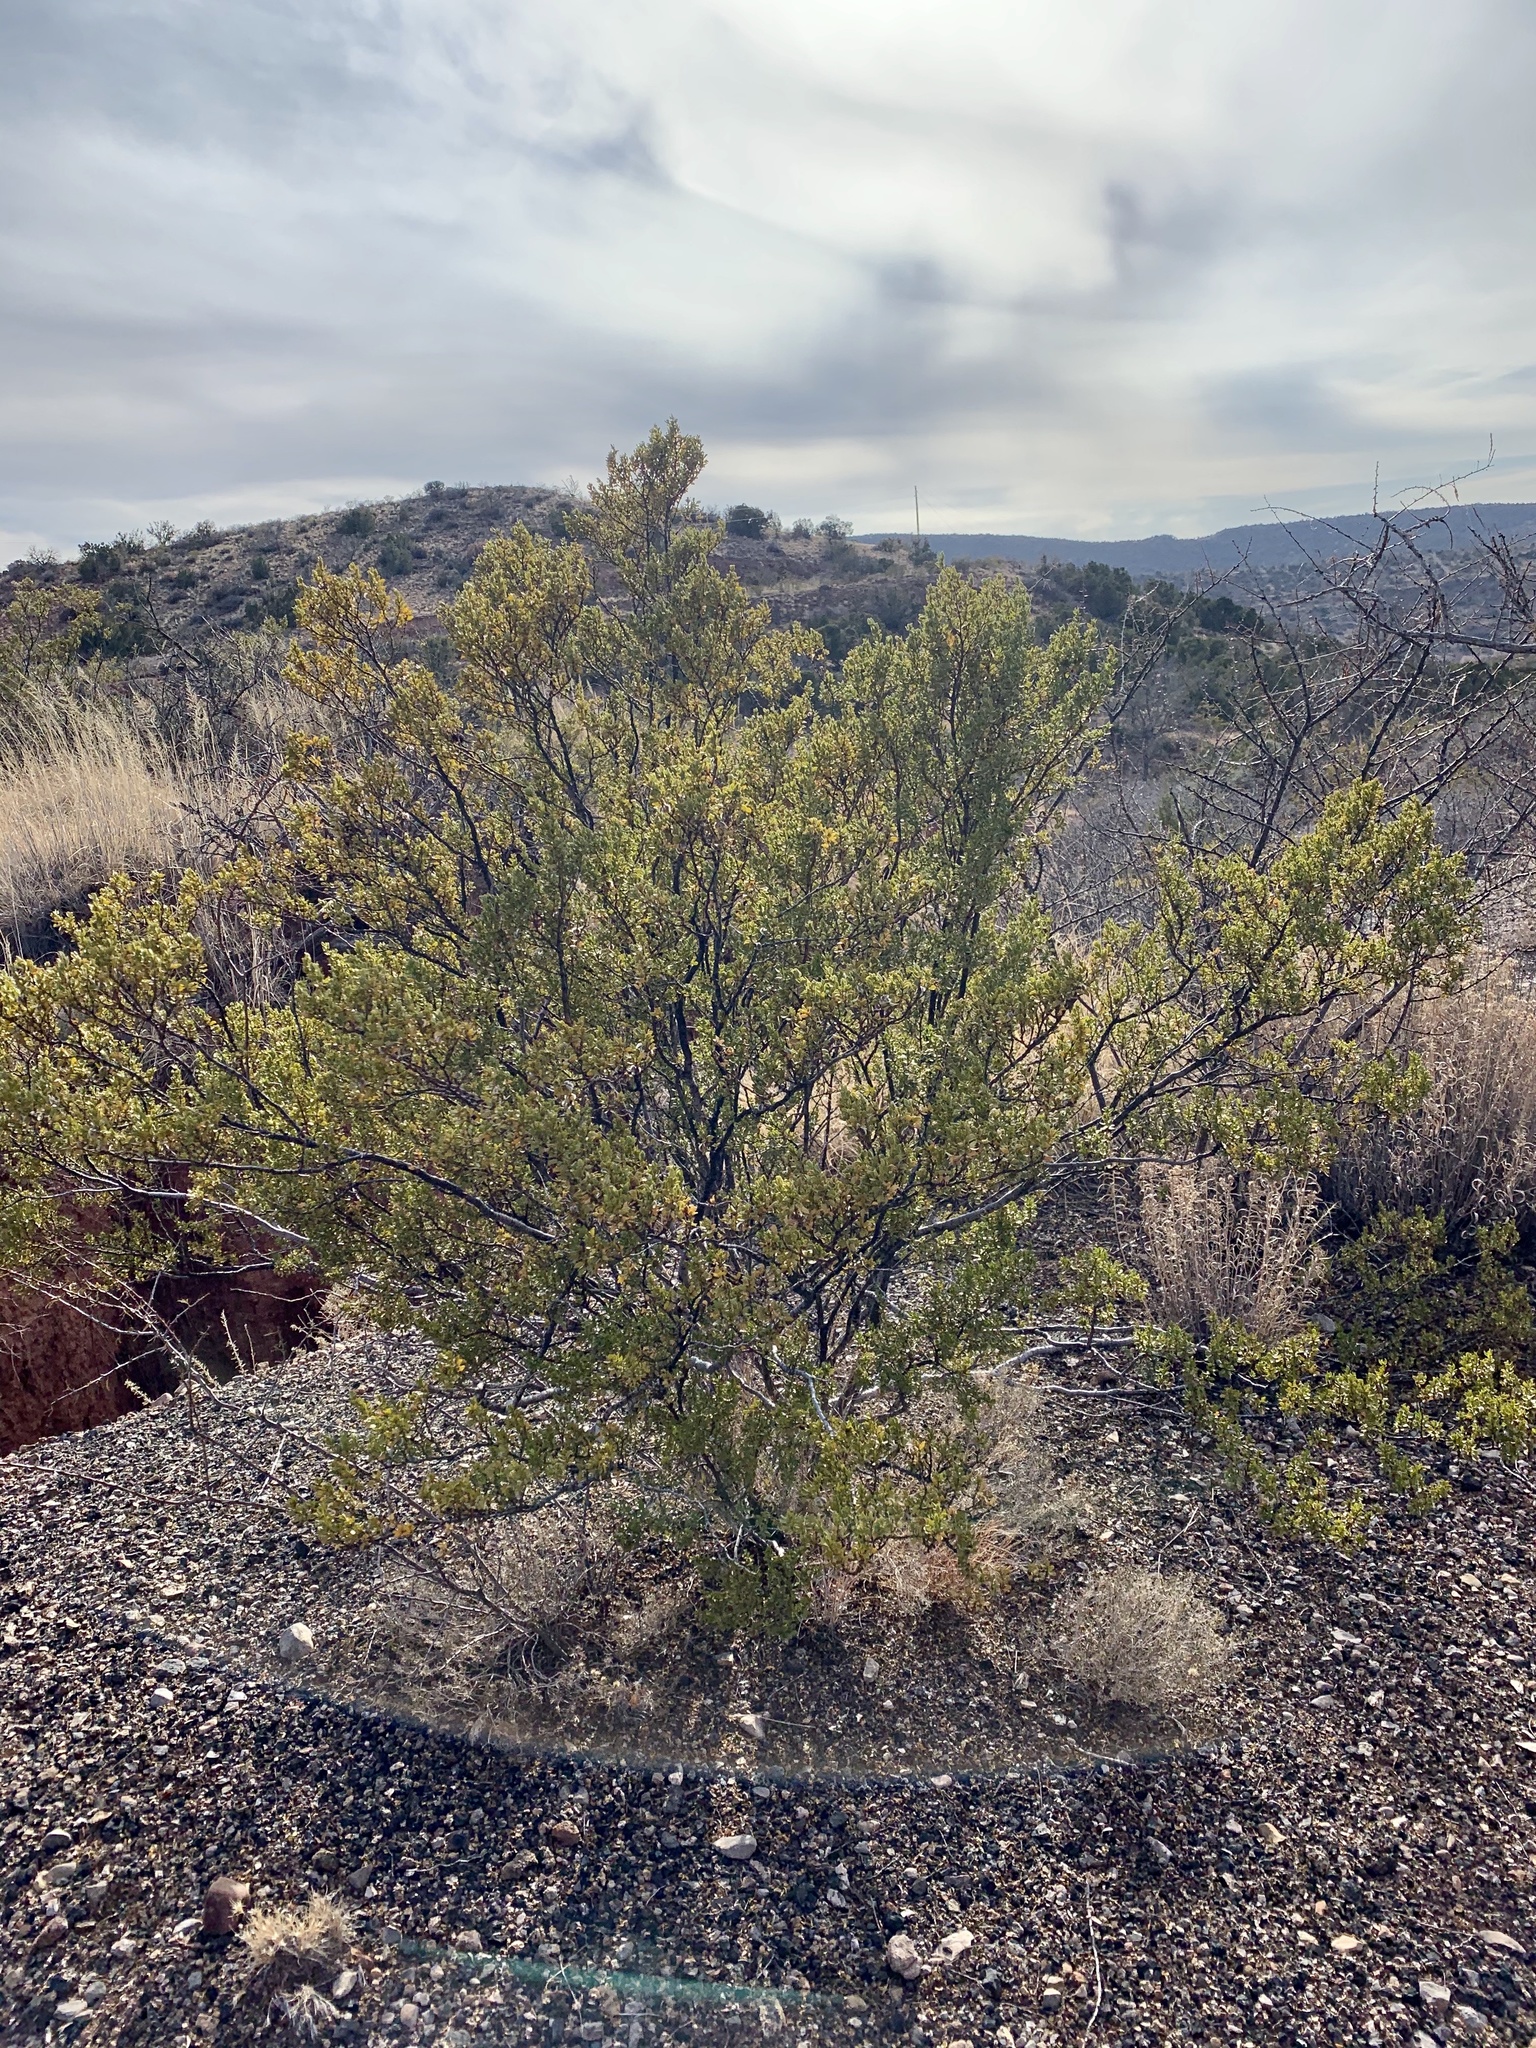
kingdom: Plantae
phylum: Tracheophyta
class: Magnoliopsida
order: Zygophyllales
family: Zygophyllaceae
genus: Larrea
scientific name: Larrea tridentata
